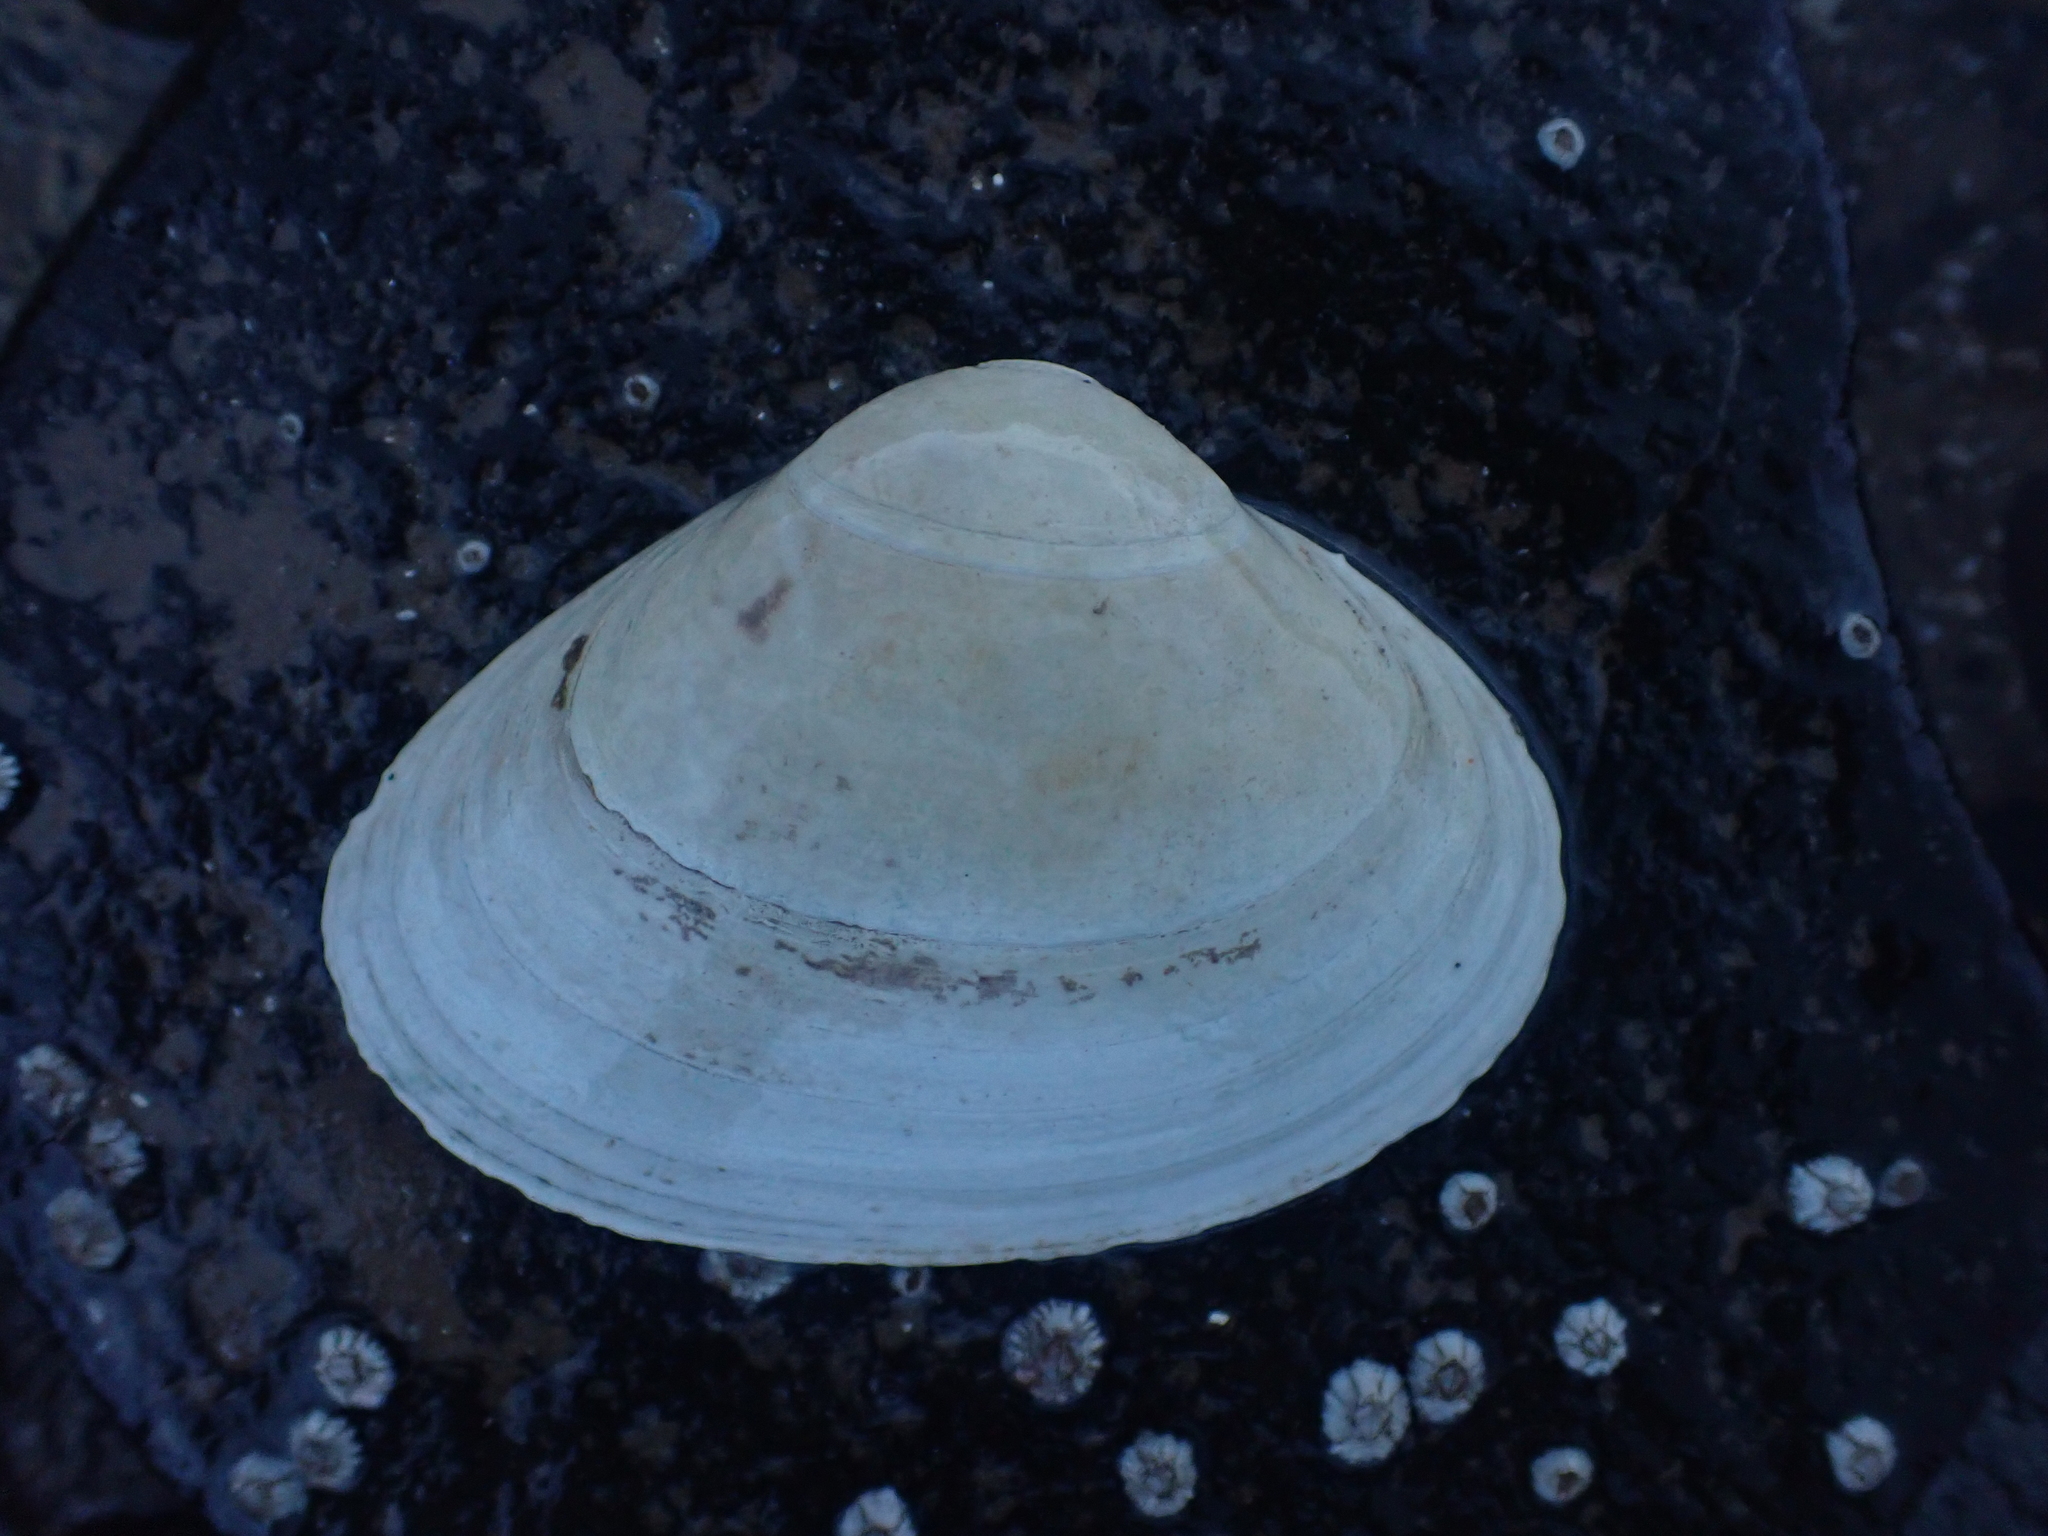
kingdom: Animalia
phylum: Mollusca
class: Bivalvia
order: Venerida
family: Mactridae
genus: Spisula
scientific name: Spisula solidissima
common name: Atlantic surf clam
